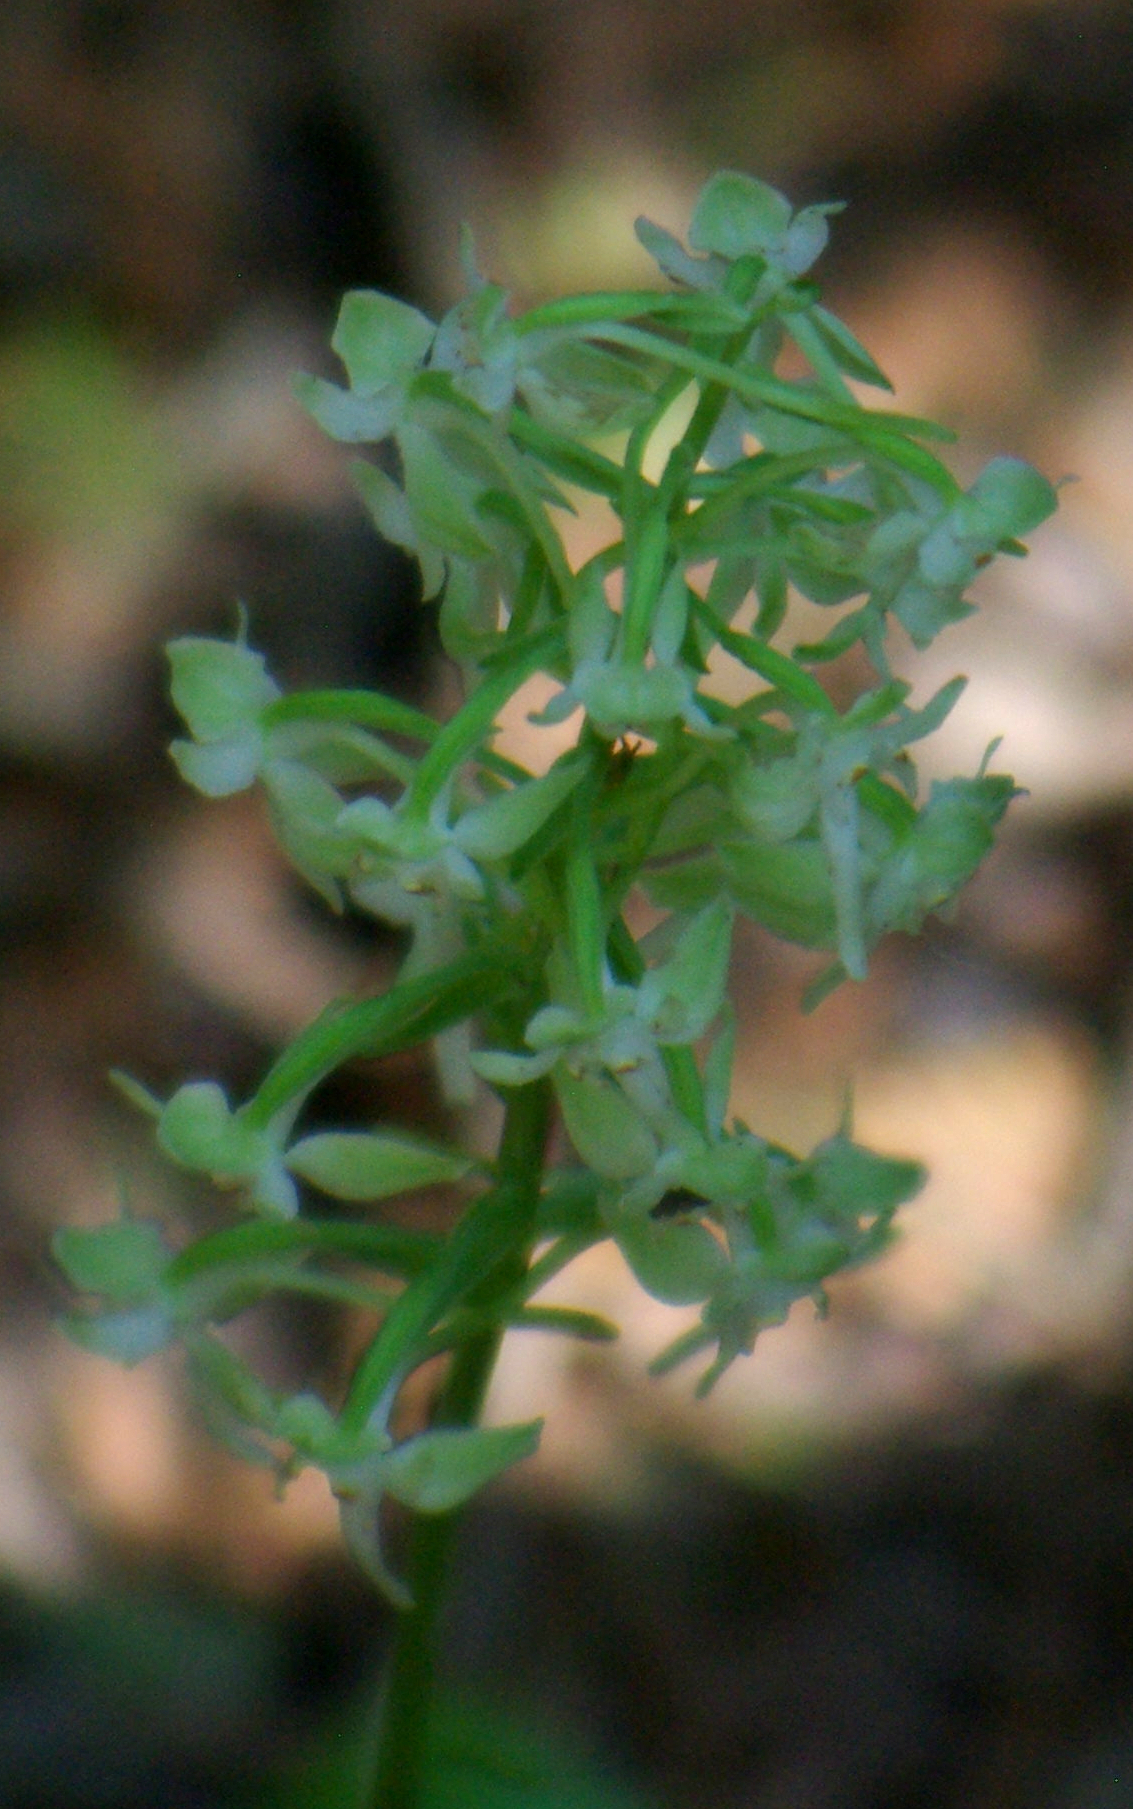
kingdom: Plantae
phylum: Tracheophyta
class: Liliopsida
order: Asparagales
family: Orchidaceae
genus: Platanthera
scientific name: Platanthera orbiculata
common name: Large round-leaved orchid
